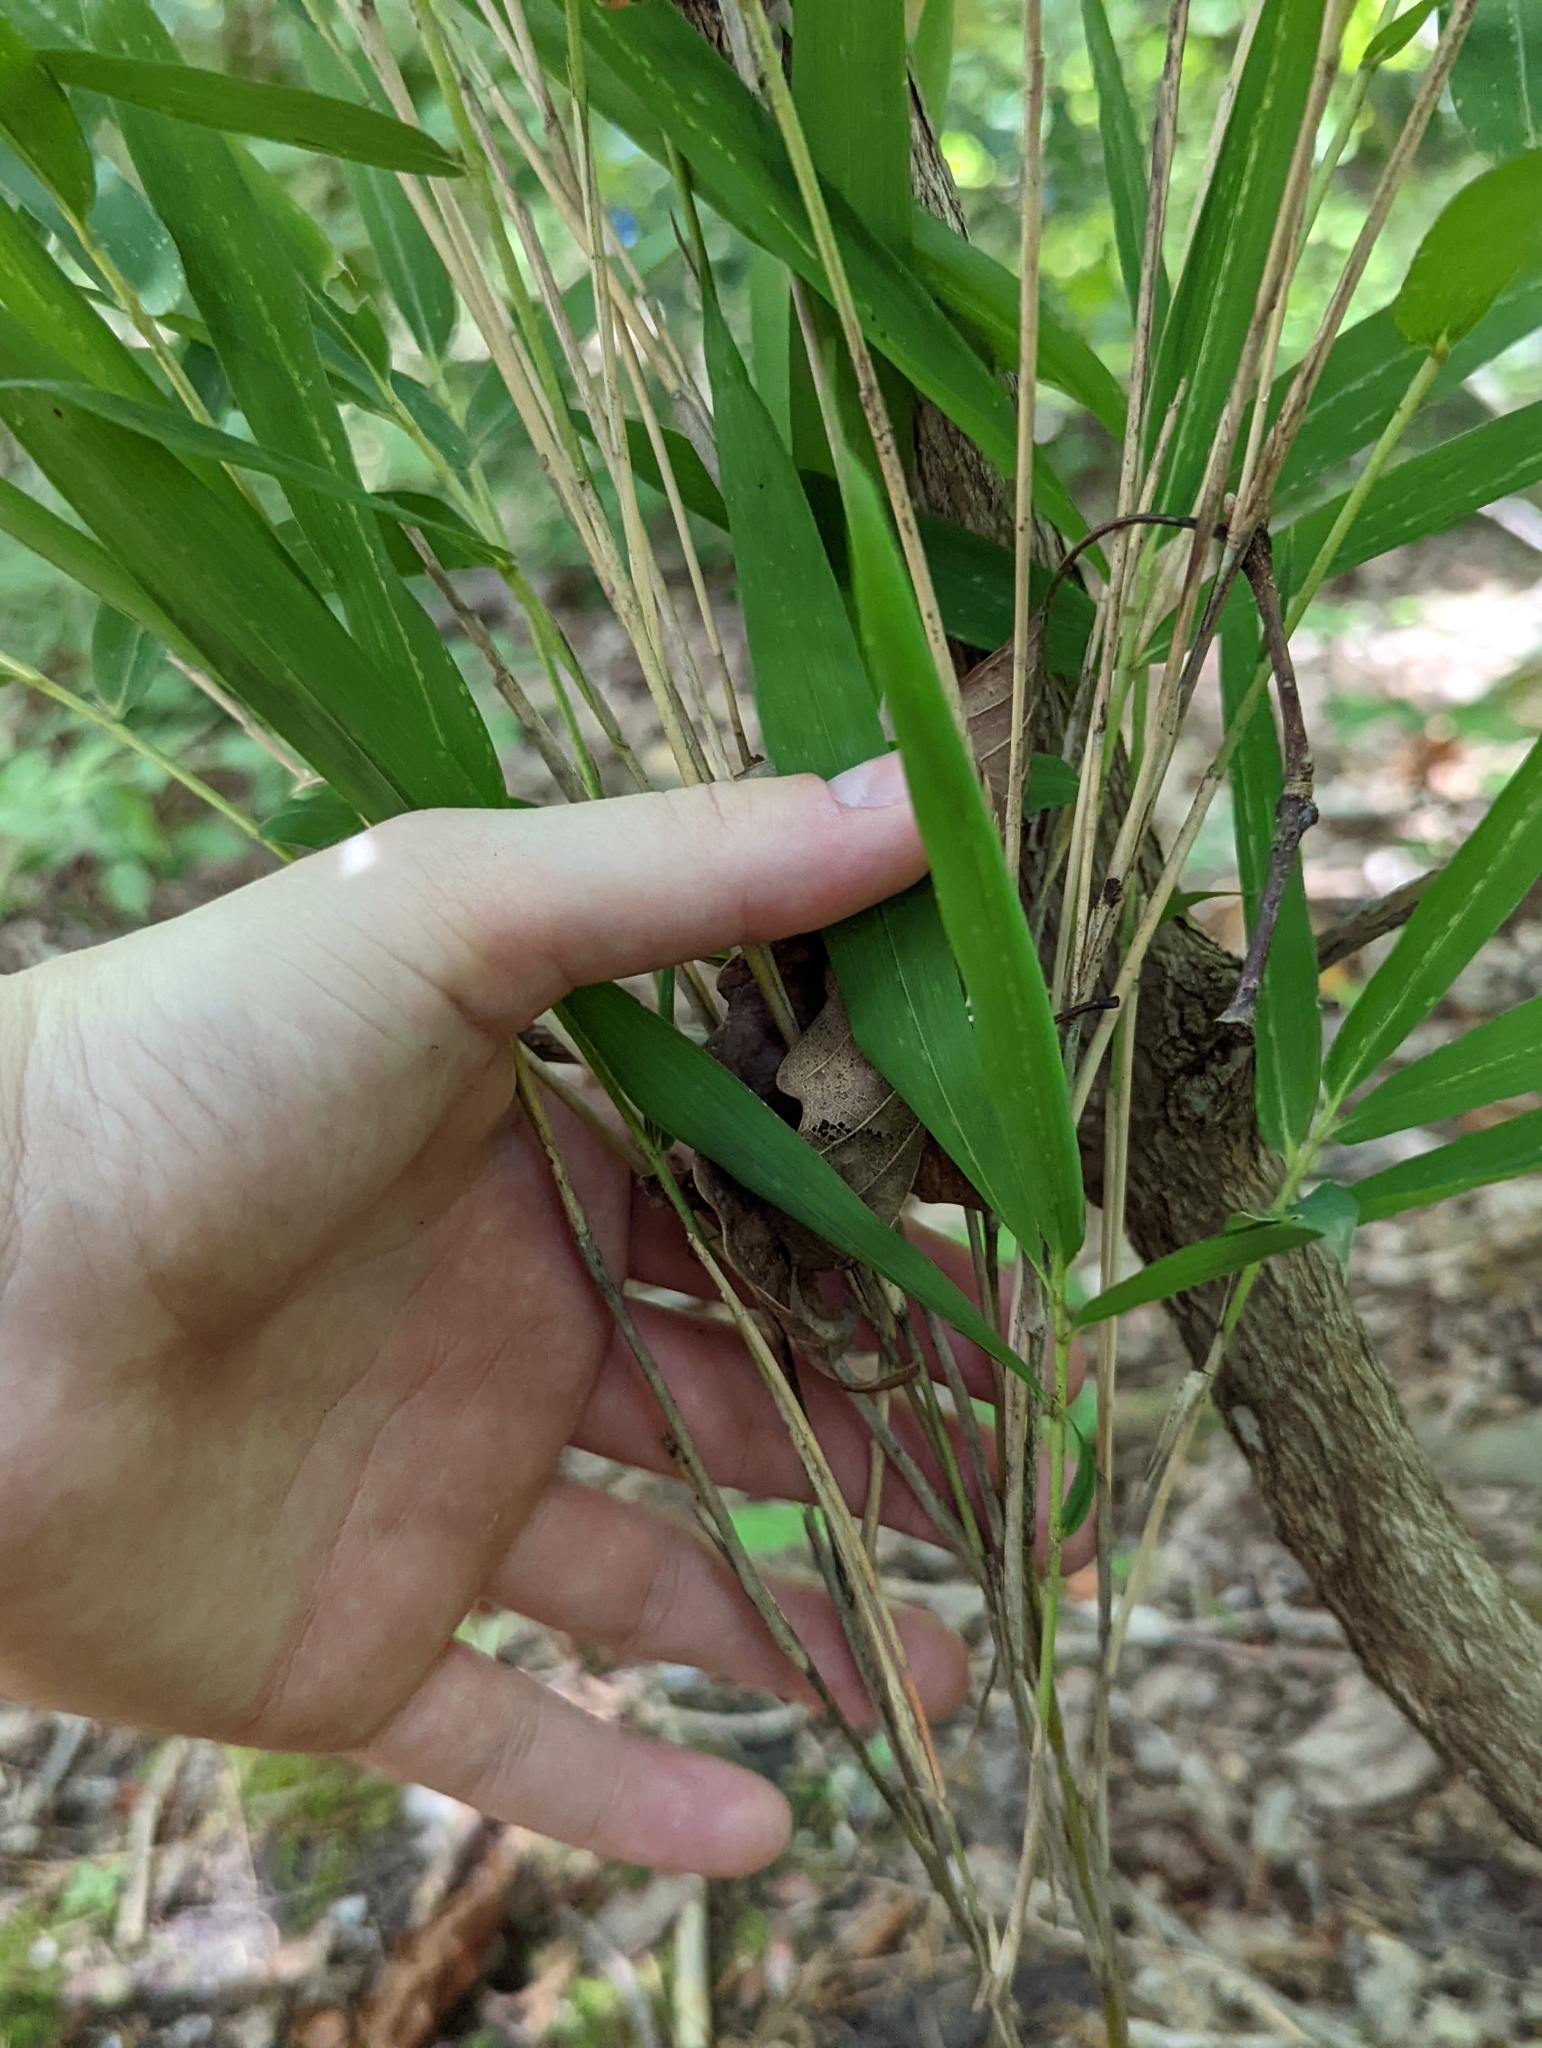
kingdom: Plantae
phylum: Tracheophyta
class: Liliopsida
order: Poales
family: Poaceae
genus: Arundinaria
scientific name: Arundinaria appalachiana
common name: Hill cane
